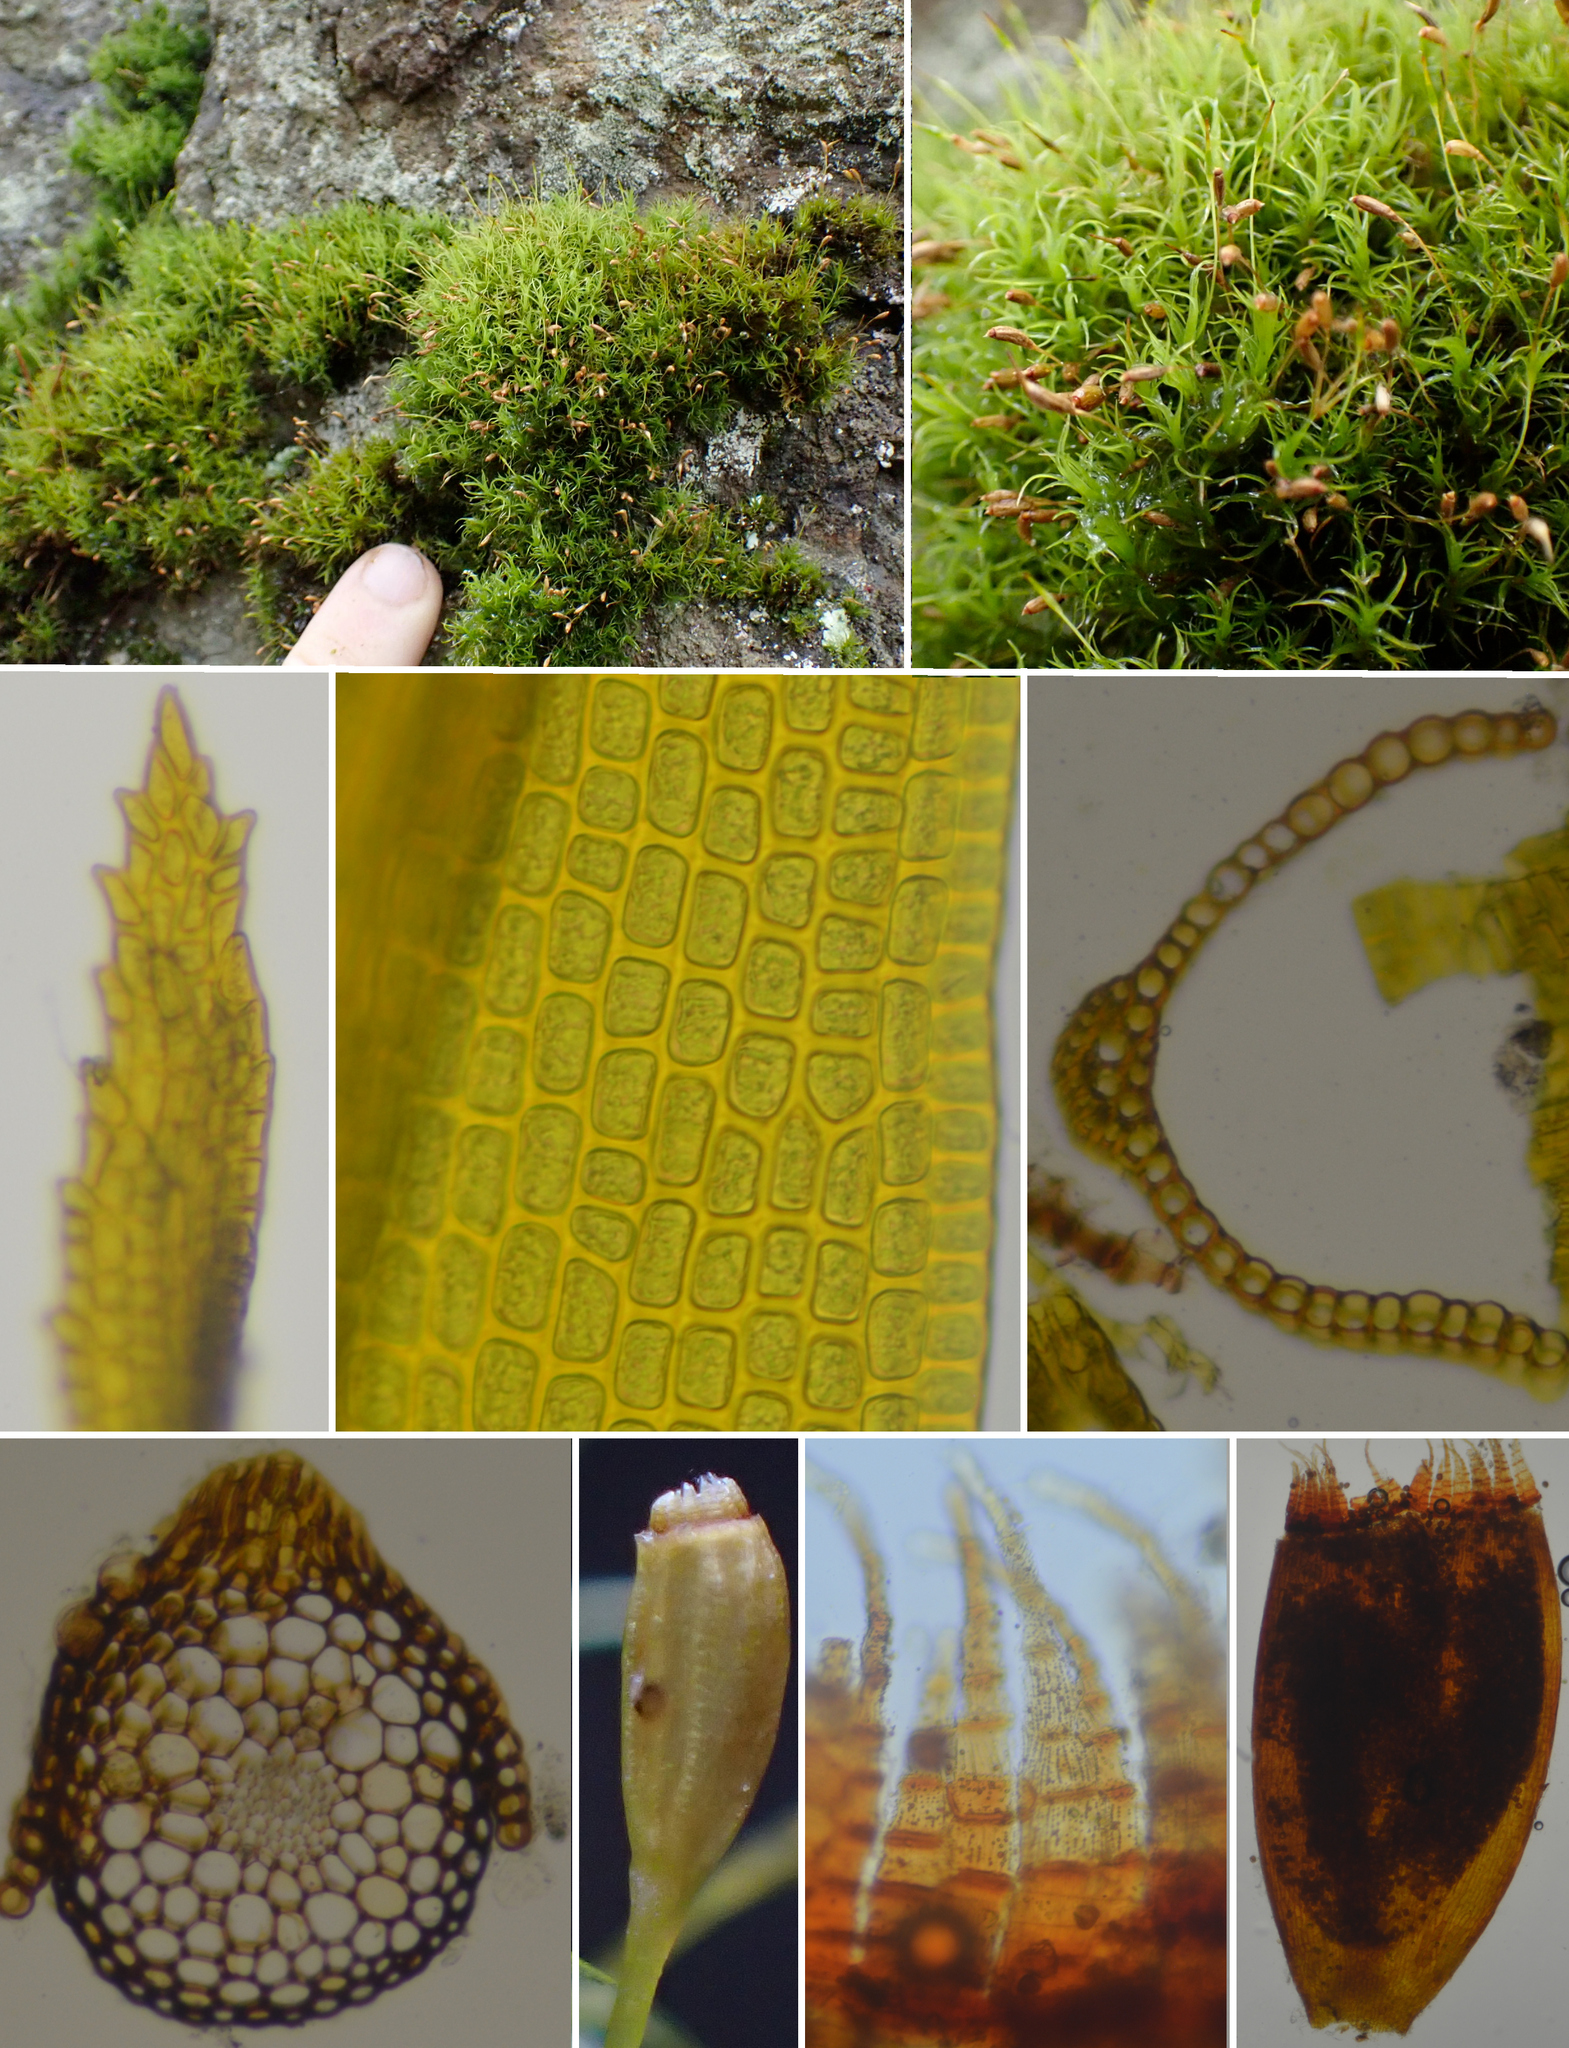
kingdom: Plantae
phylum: Bryophyta
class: Bryopsida
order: Dicranales
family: Rhabdoweisiaceae
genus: Cynodontium
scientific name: Cynodontium jenneri
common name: Jenner's dog-tooth
